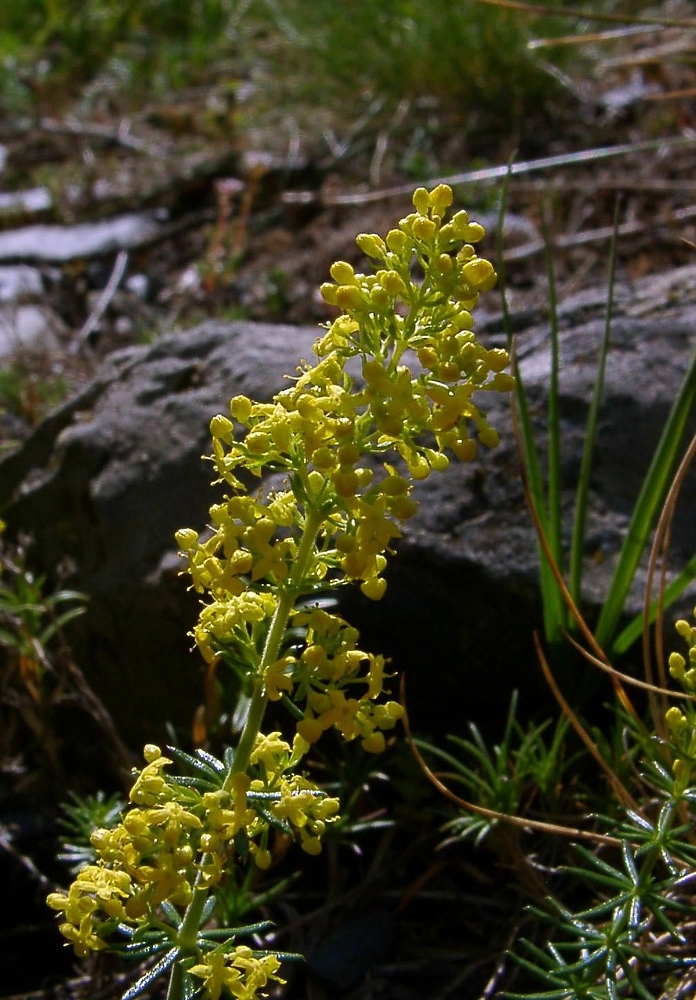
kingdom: Plantae
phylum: Tracheophyta
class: Magnoliopsida
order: Gentianales
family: Rubiaceae
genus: Galium
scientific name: Galium verum
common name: Lady's bedstraw
